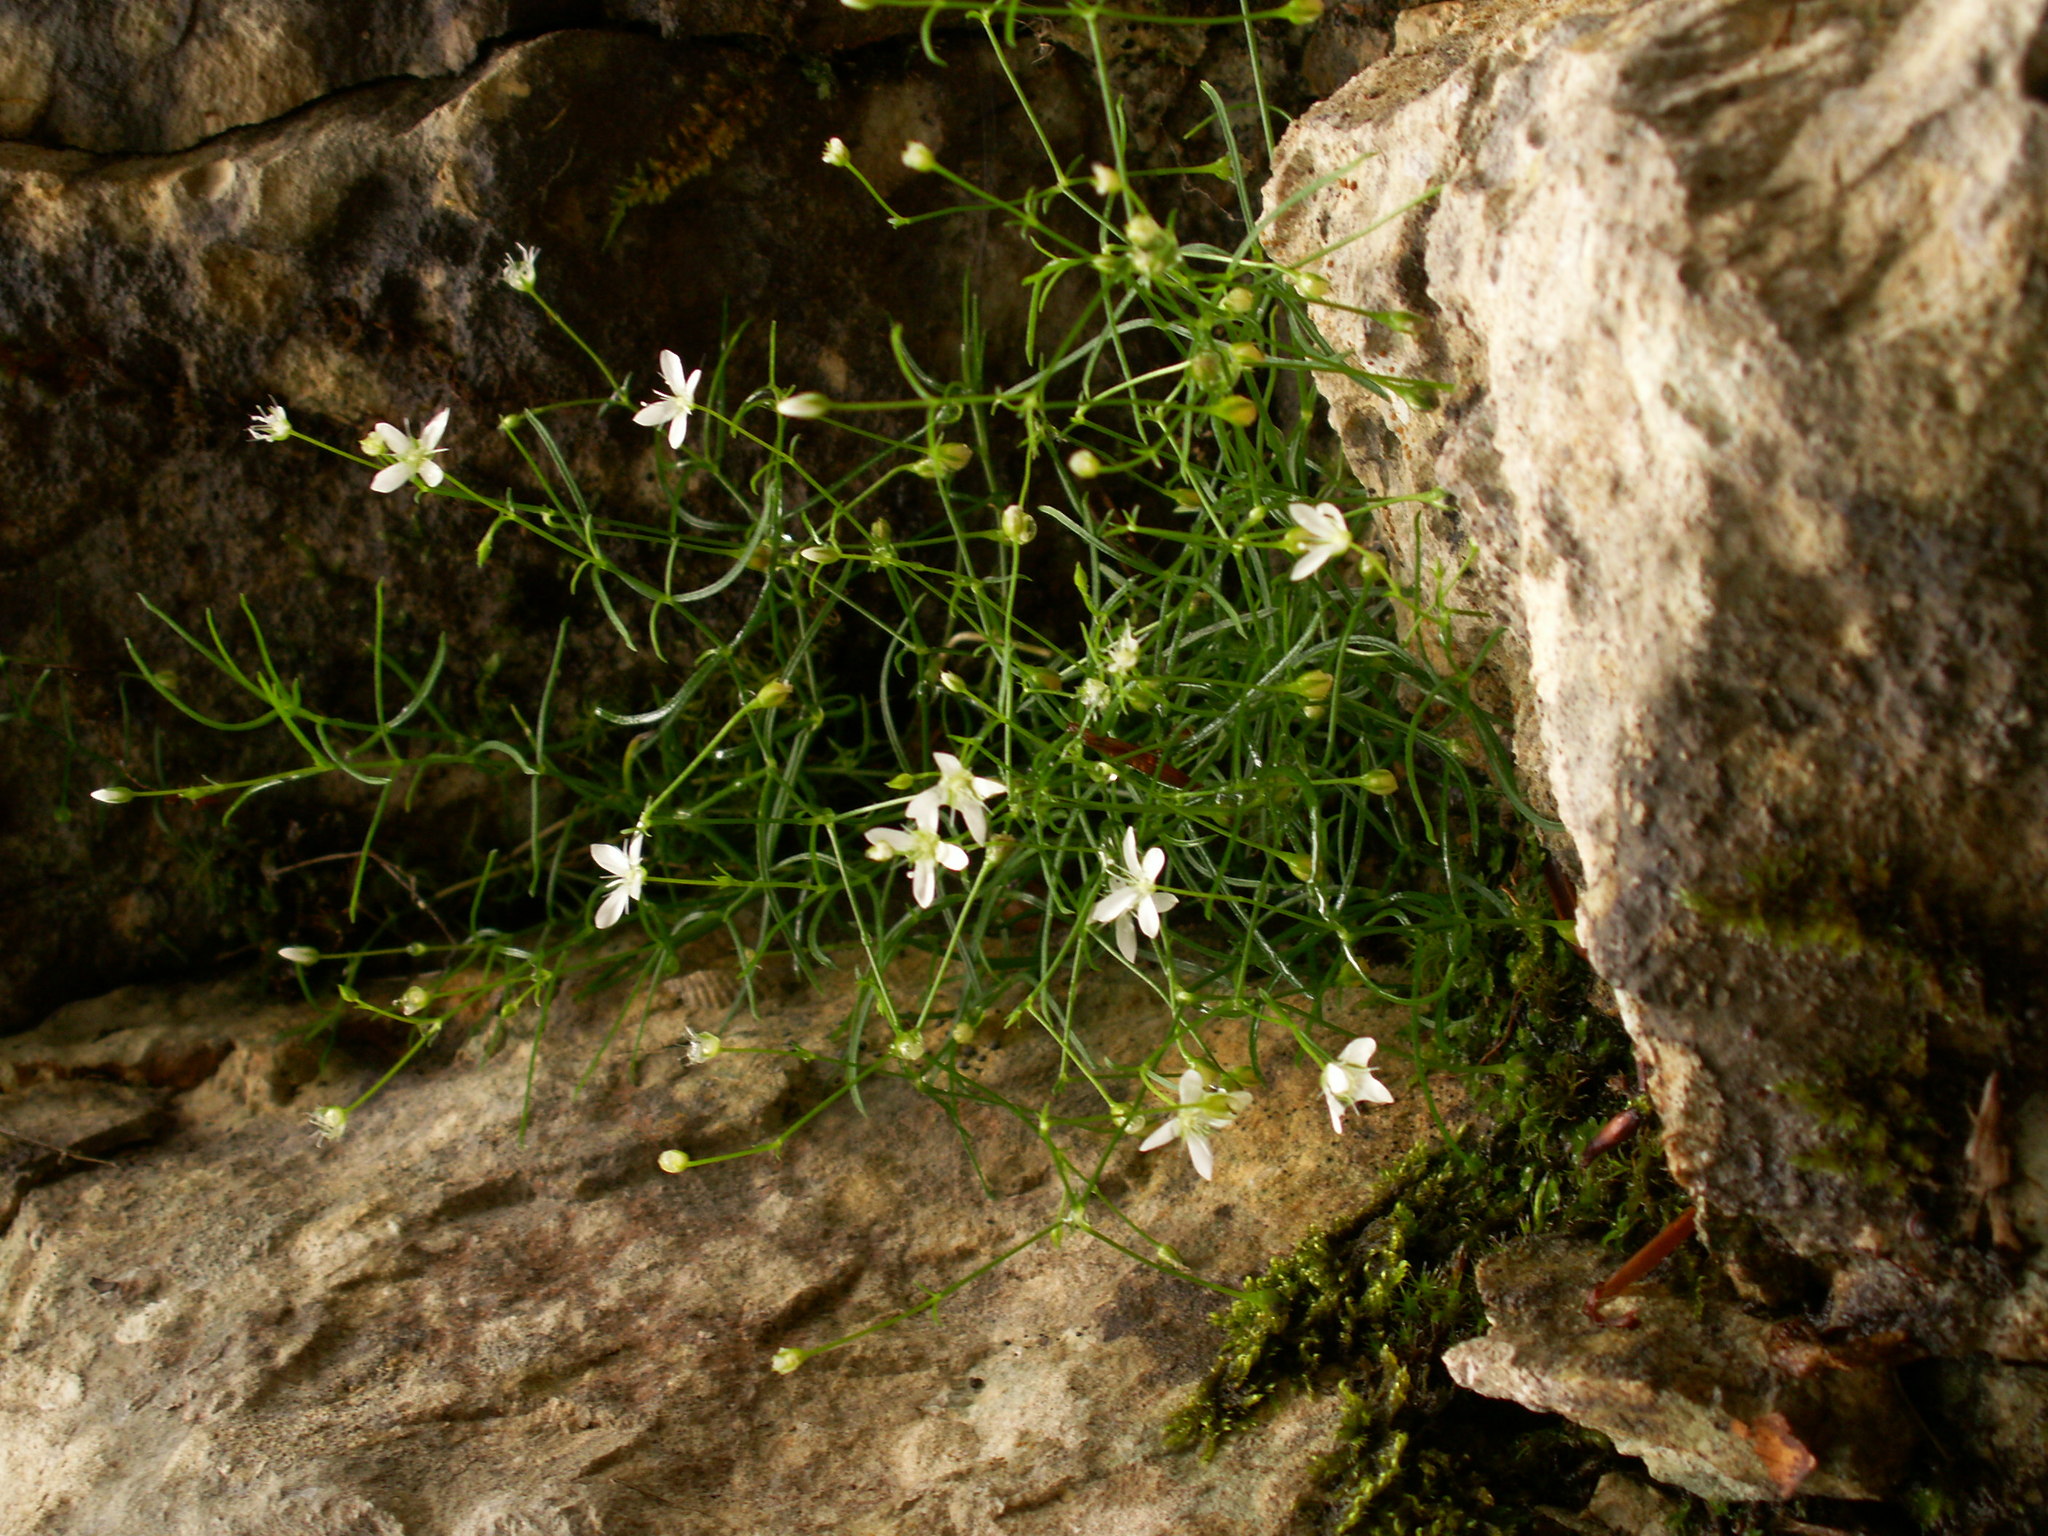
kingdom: Plantae
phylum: Tracheophyta
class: Magnoliopsida
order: Caryophyllales
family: Caryophyllaceae
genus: Moehringia
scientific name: Moehringia muscosa
